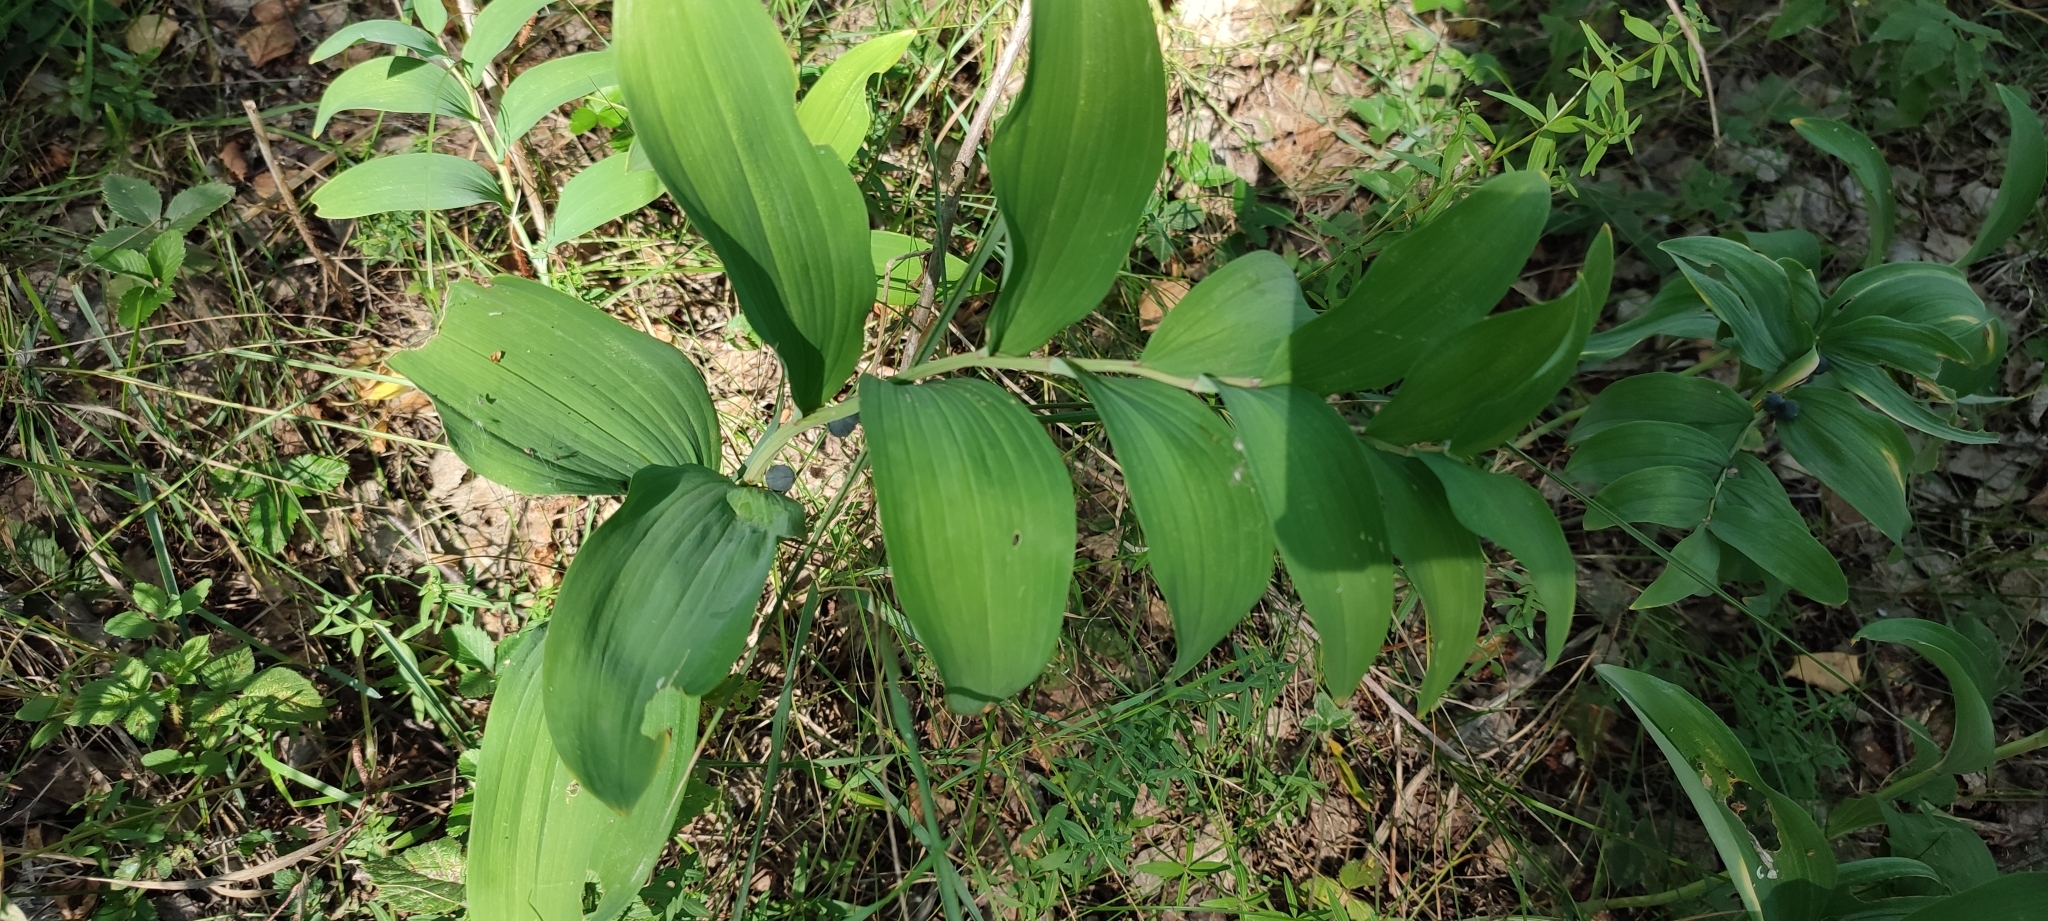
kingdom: Plantae
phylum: Tracheophyta
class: Liliopsida
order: Asparagales
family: Asparagaceae
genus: Polygonatum
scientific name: Polygonatum odoratum
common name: Angular solomon's-seal
